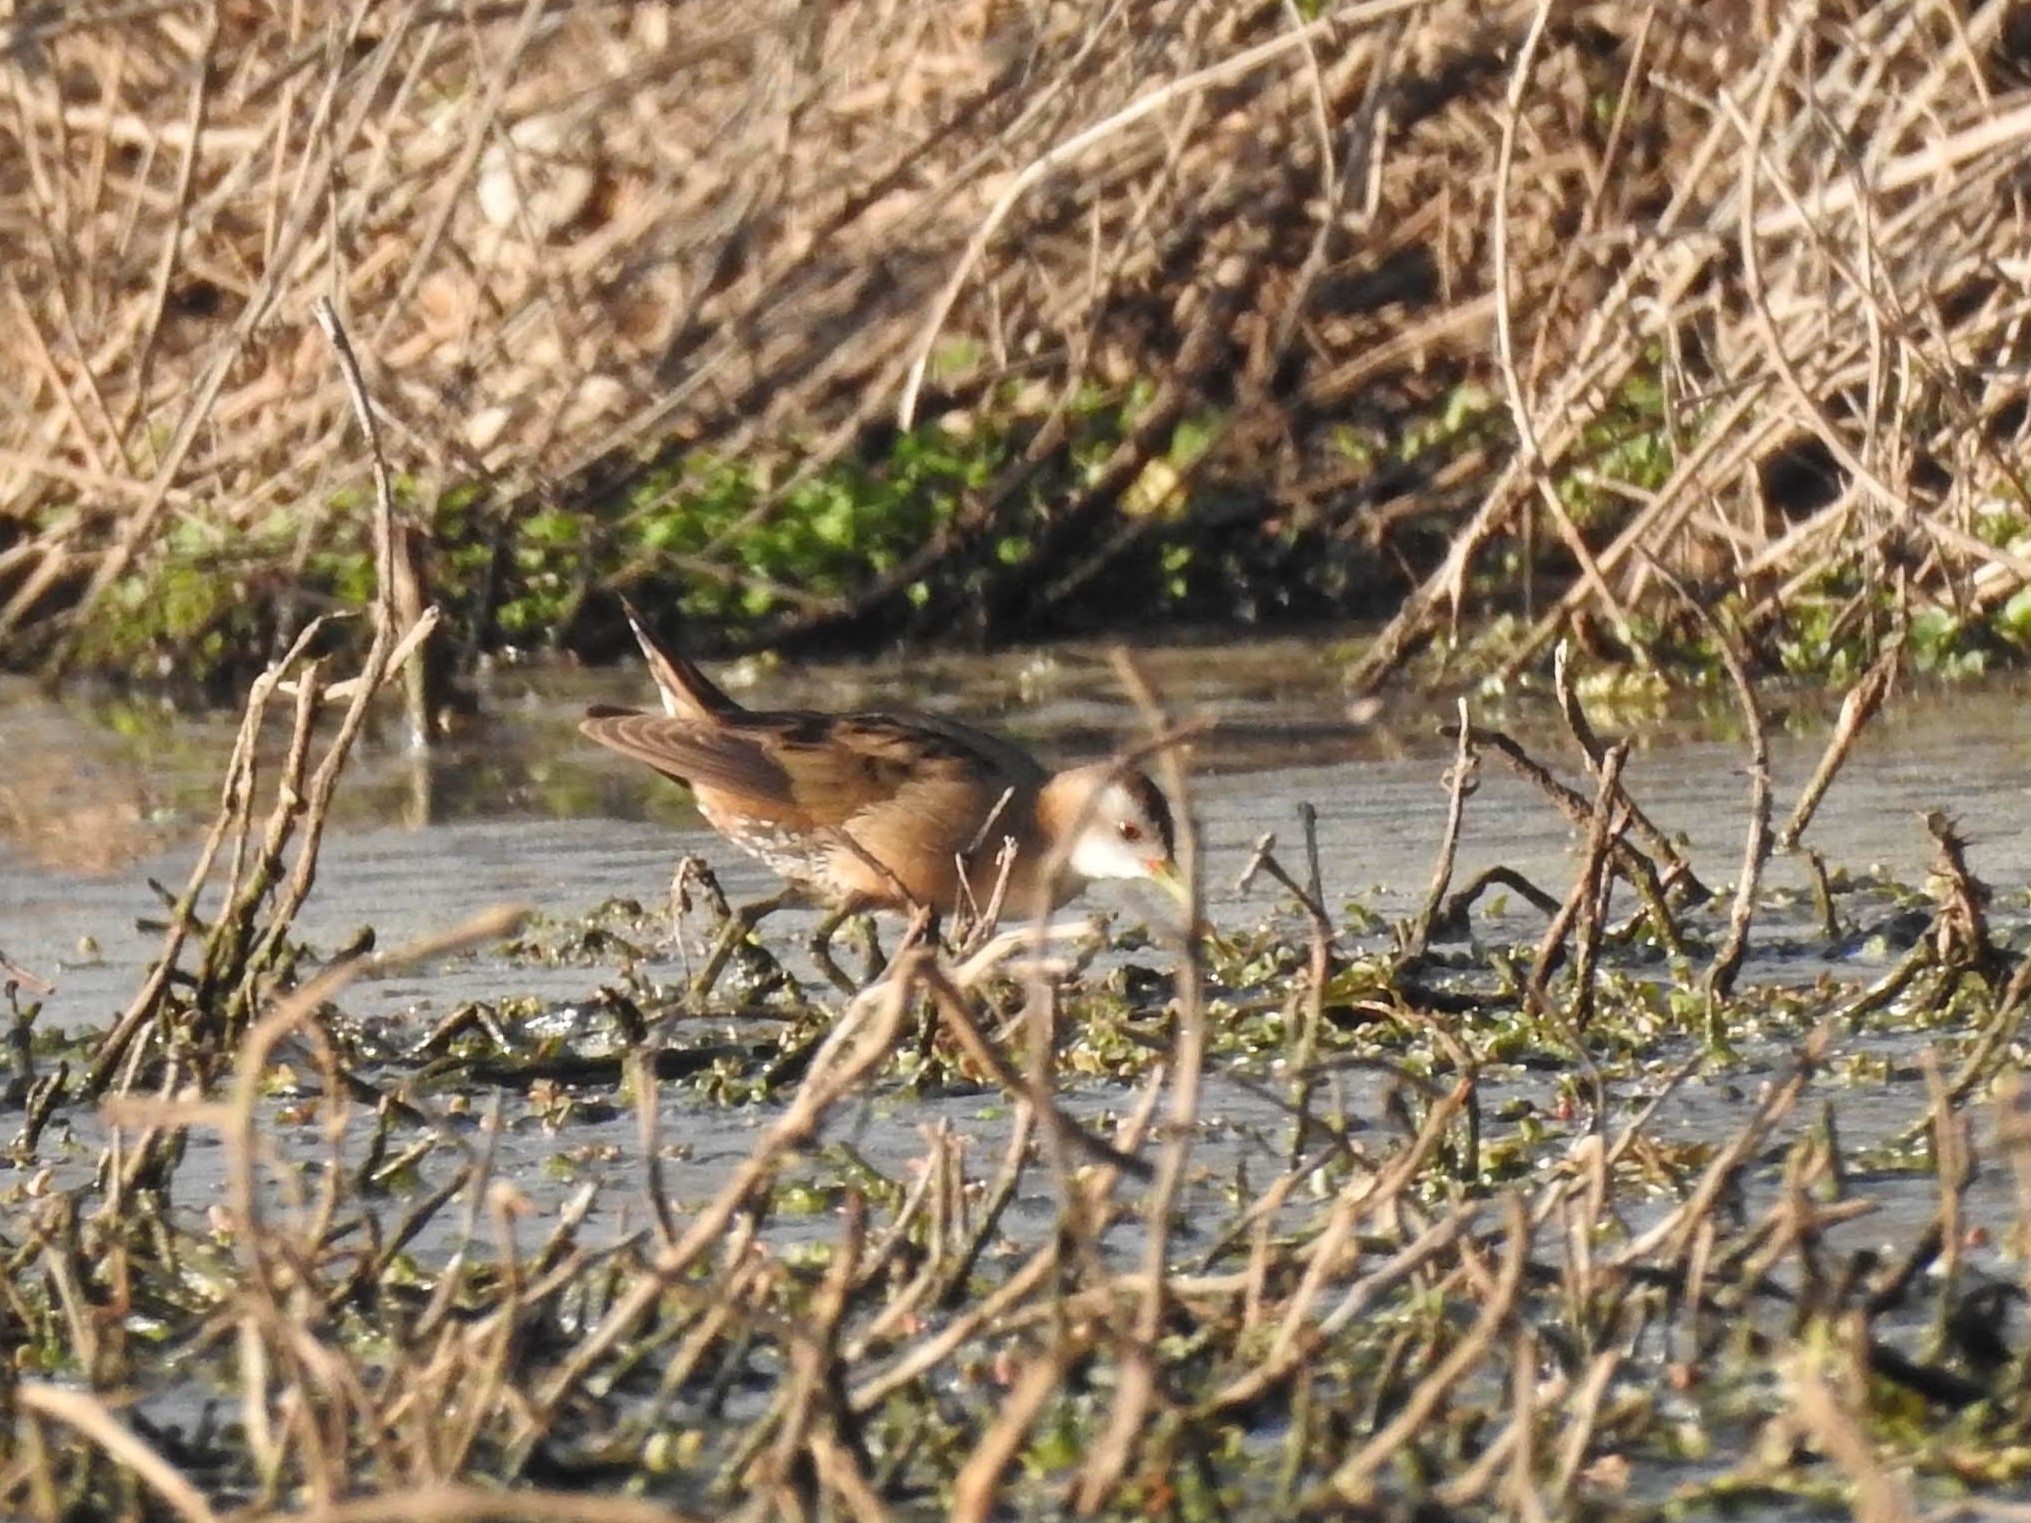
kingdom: Animalia
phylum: Chordata
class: Aves
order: Gruiformes
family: Rallidae
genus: Porzana
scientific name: Porzana parva
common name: Little crake
